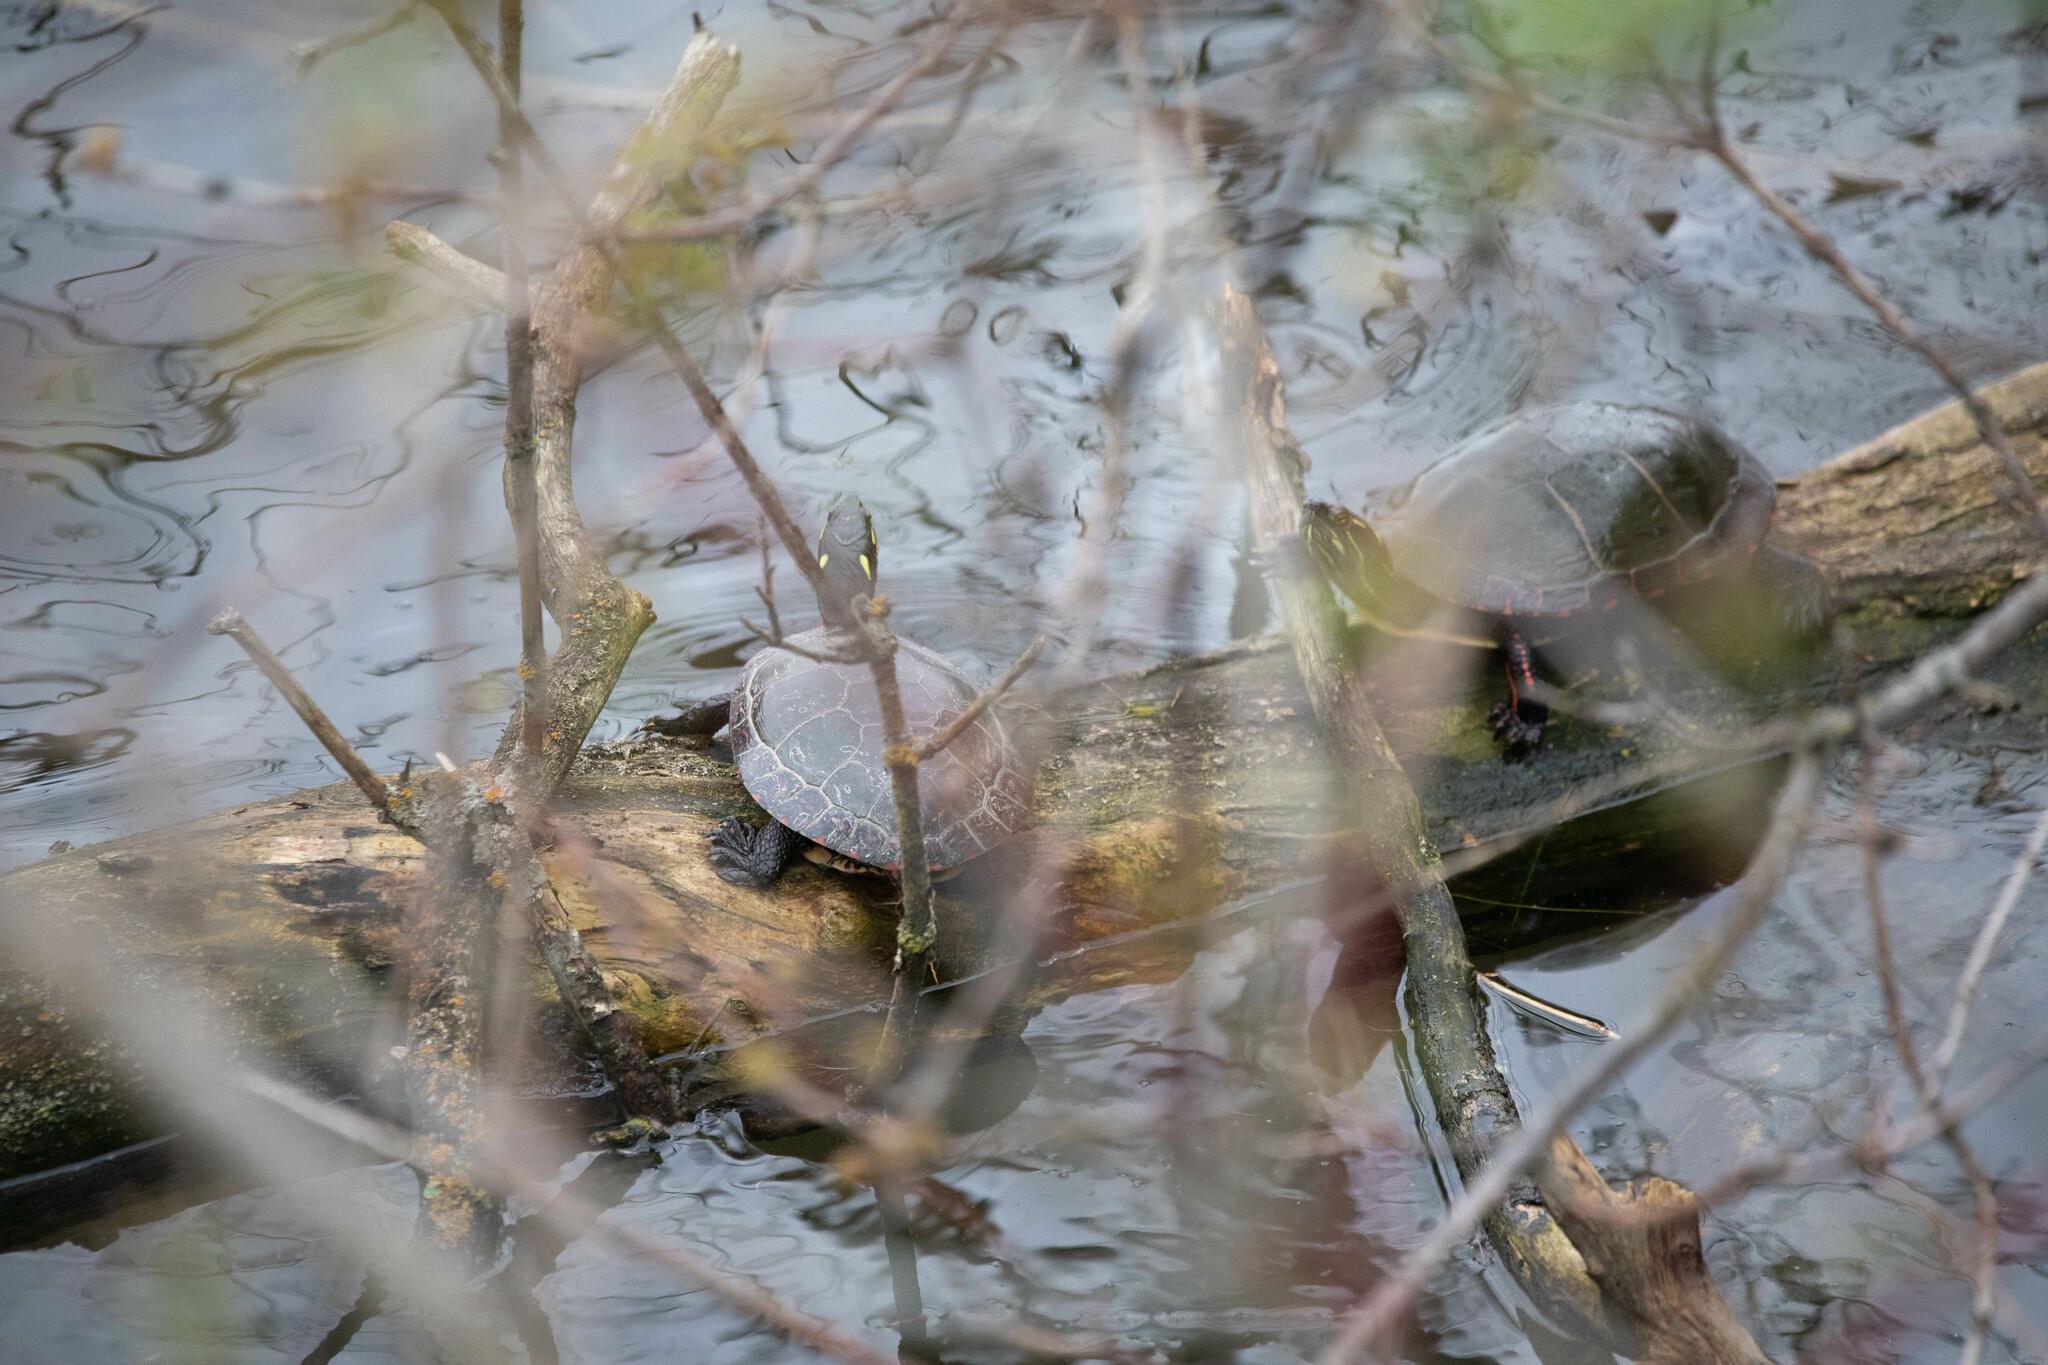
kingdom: Animalia
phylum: Chordata
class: Testudines
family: Emydidae
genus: Chrysemys
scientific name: Chrysemys picta
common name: Painted turtle
